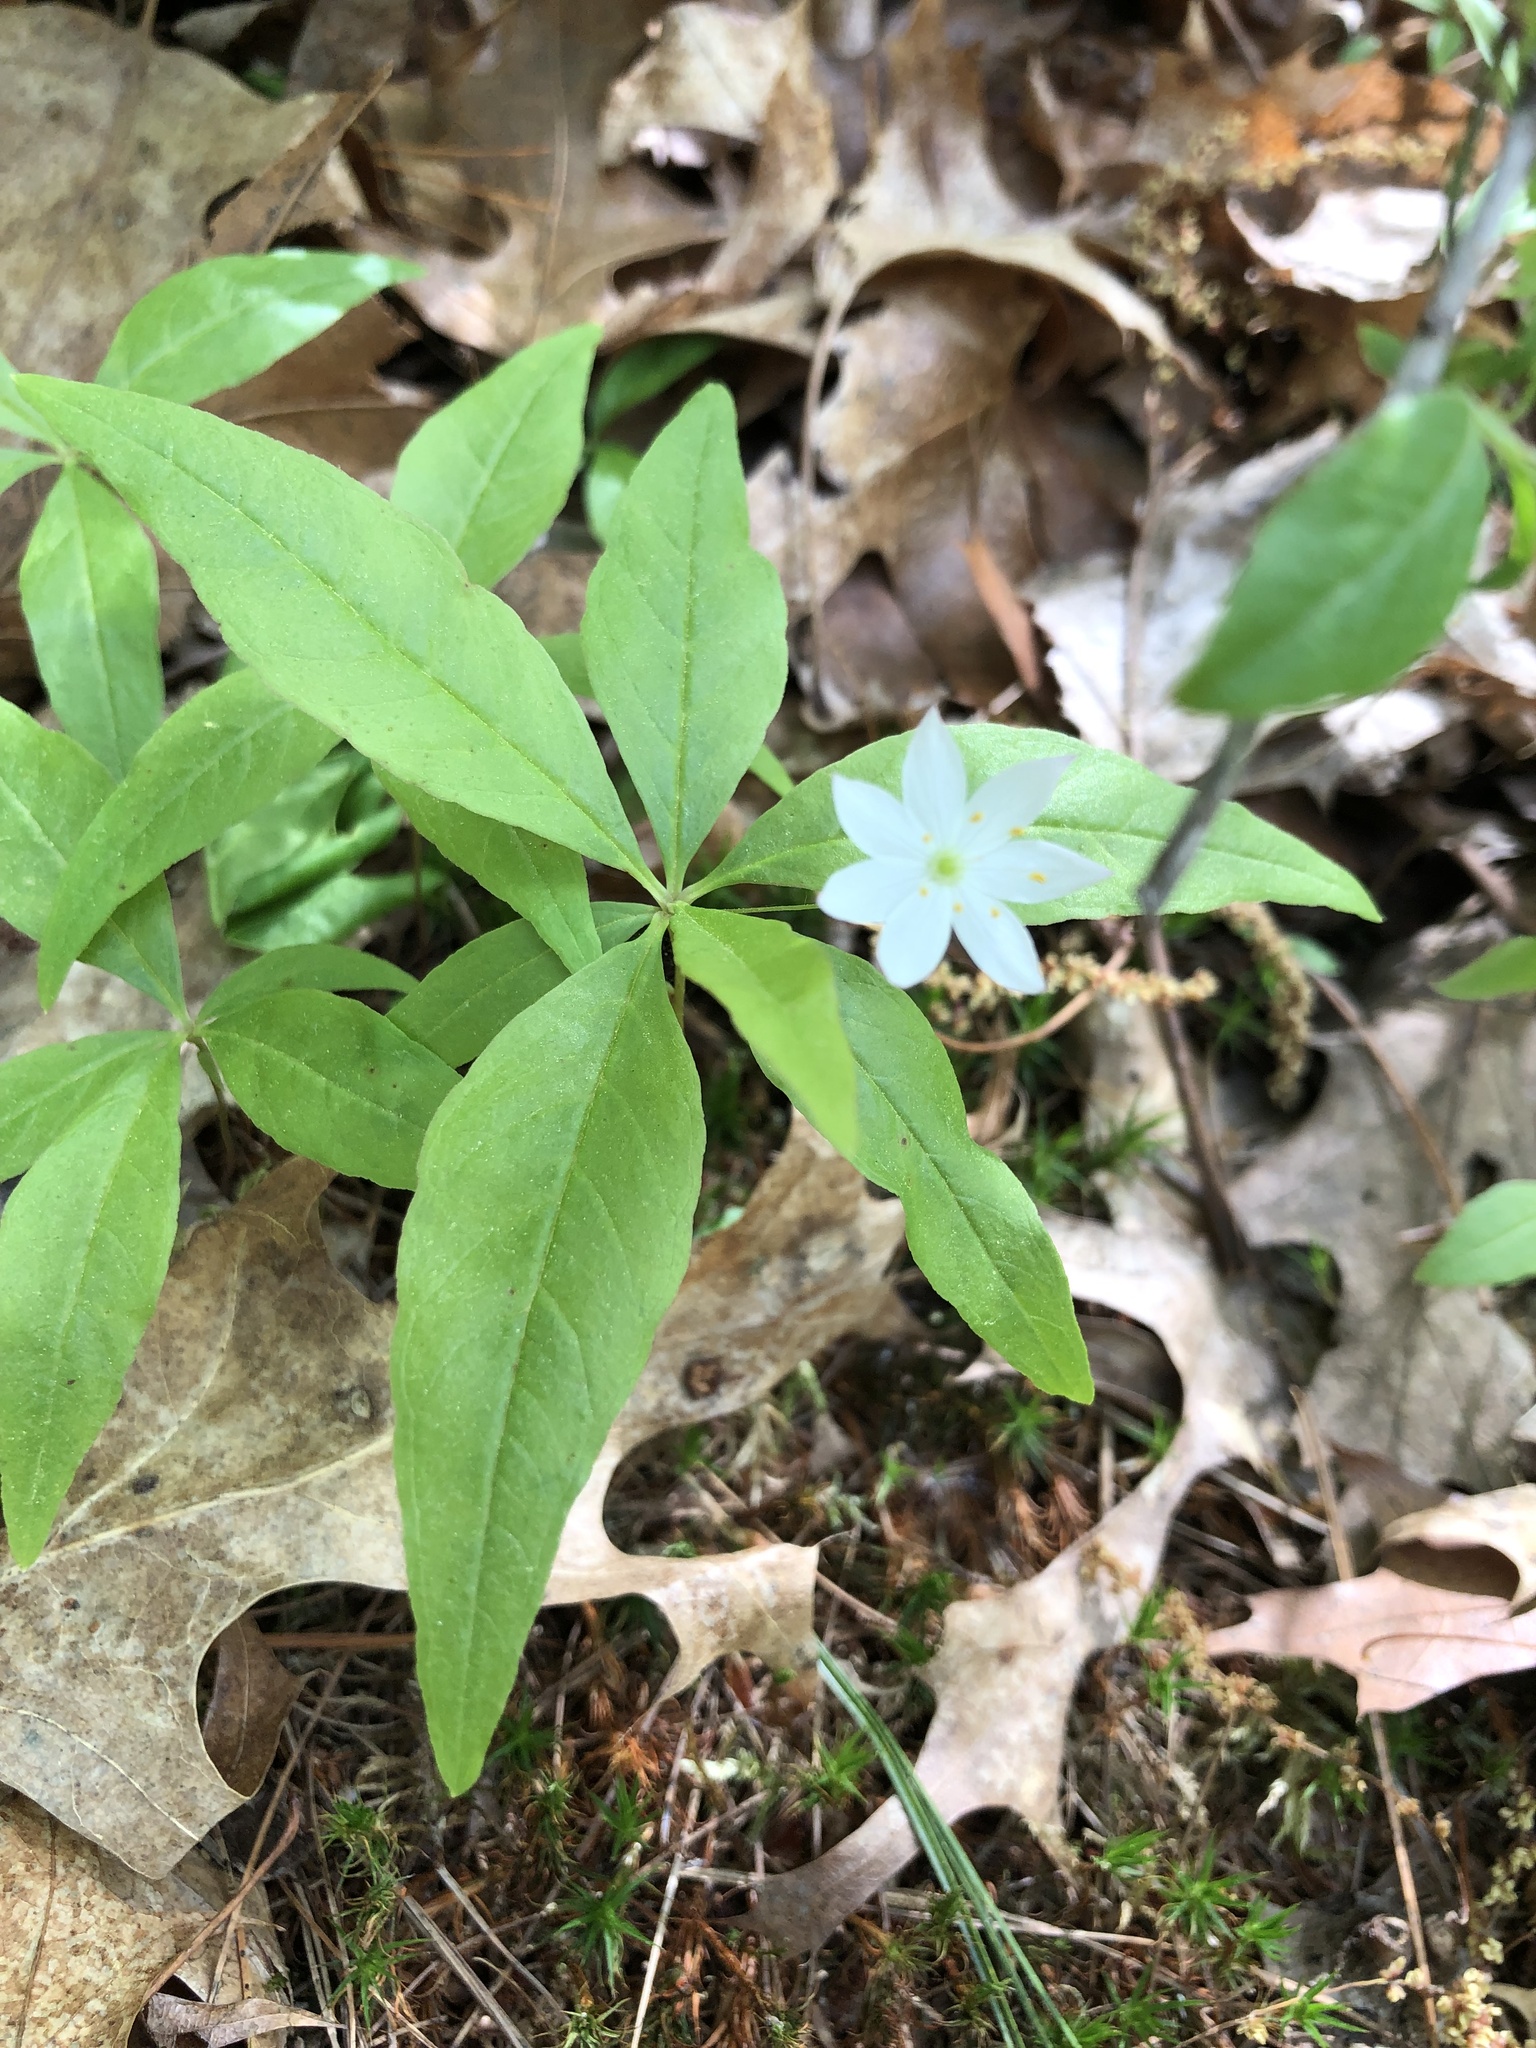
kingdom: Plantae
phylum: Tracheophyta
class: Magnoliopsida
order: Ericales
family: Primulaceae
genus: Lysimachia
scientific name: Lysimachia borealis
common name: American starflower
